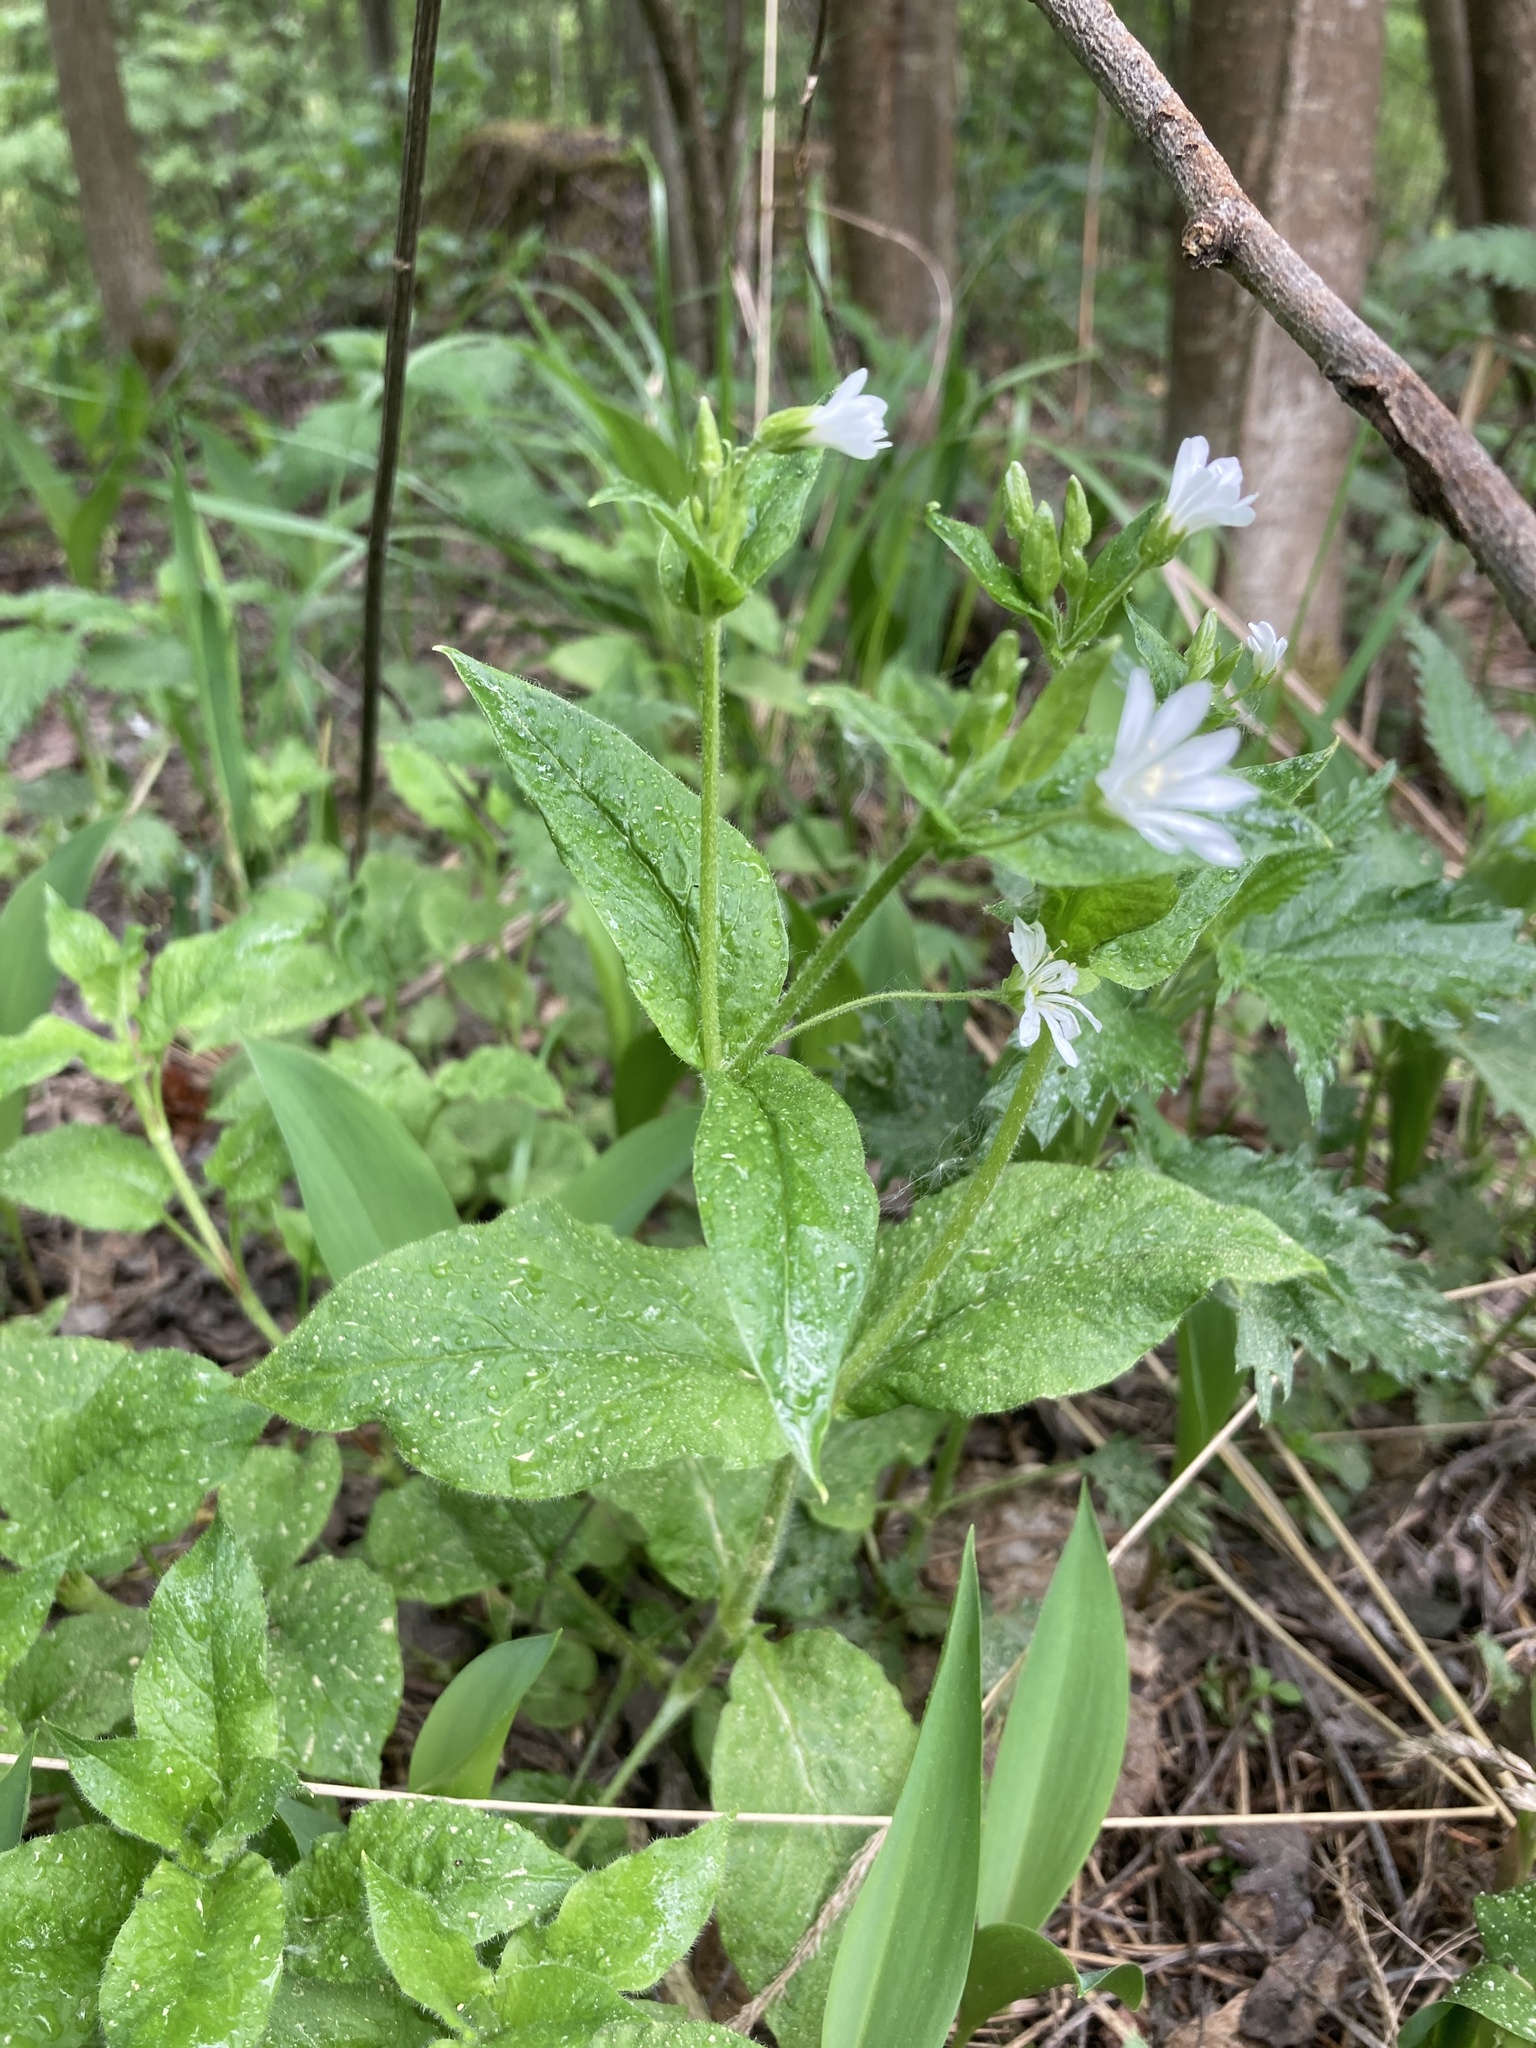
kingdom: Plantae
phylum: Tracheophyta
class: Magnoliopsida
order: Caryophyllales
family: Caryophyllaceae
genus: Stellaria
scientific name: Stellaria nemorum
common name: Wood stitchwort
